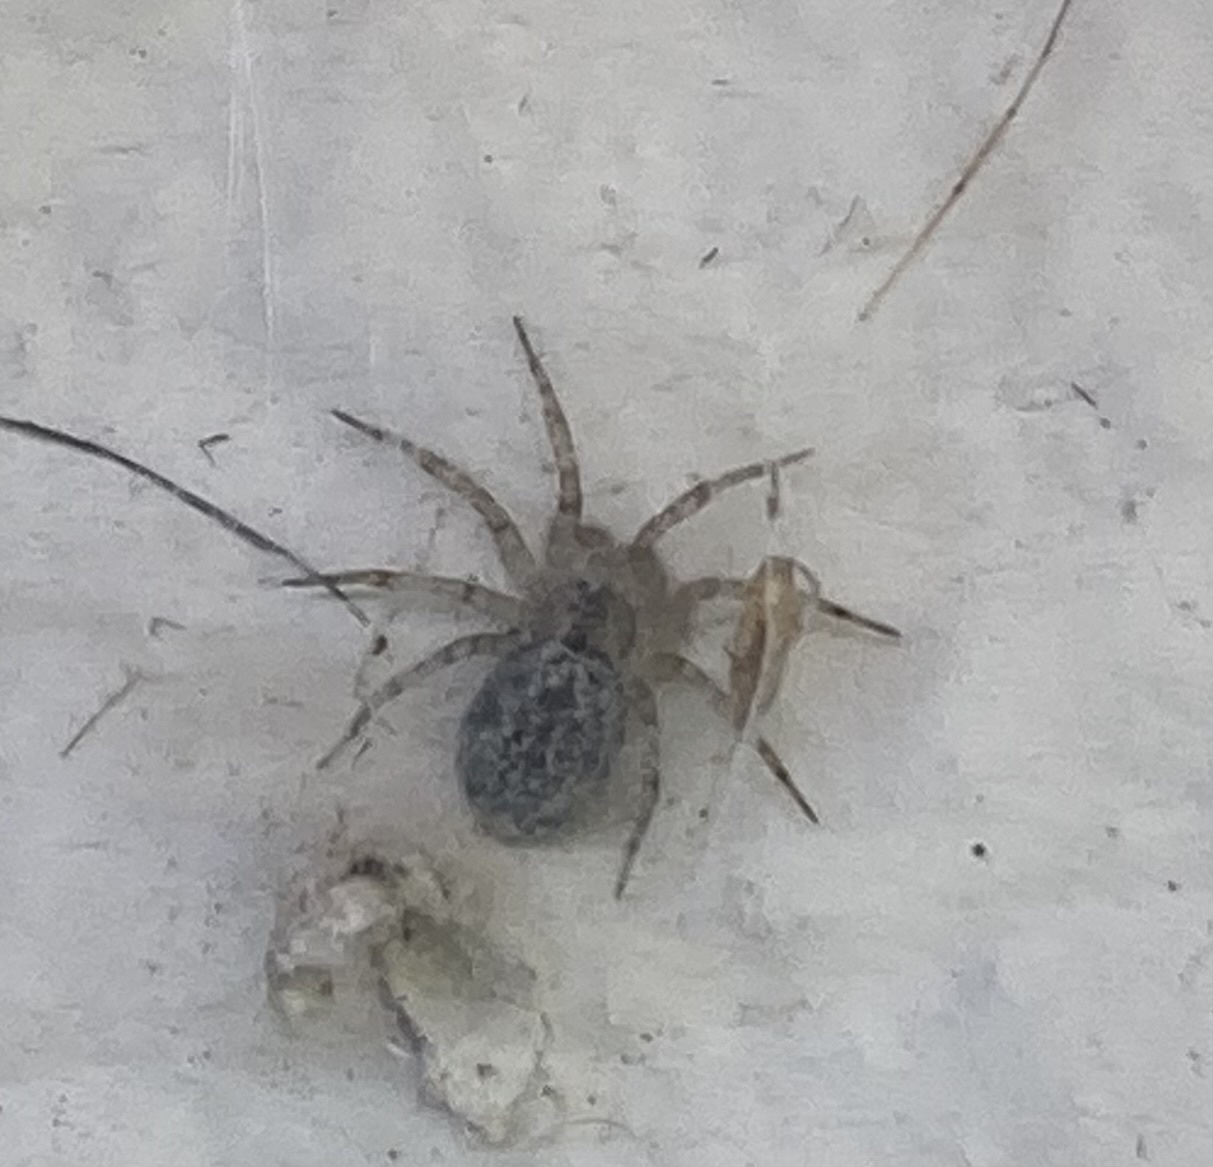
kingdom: Animalia
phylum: Arthropoda
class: Arachnida
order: Araneae
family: Oecobiidae
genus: Oecobius
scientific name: Oecobius navus
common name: Flatmesh weaver
